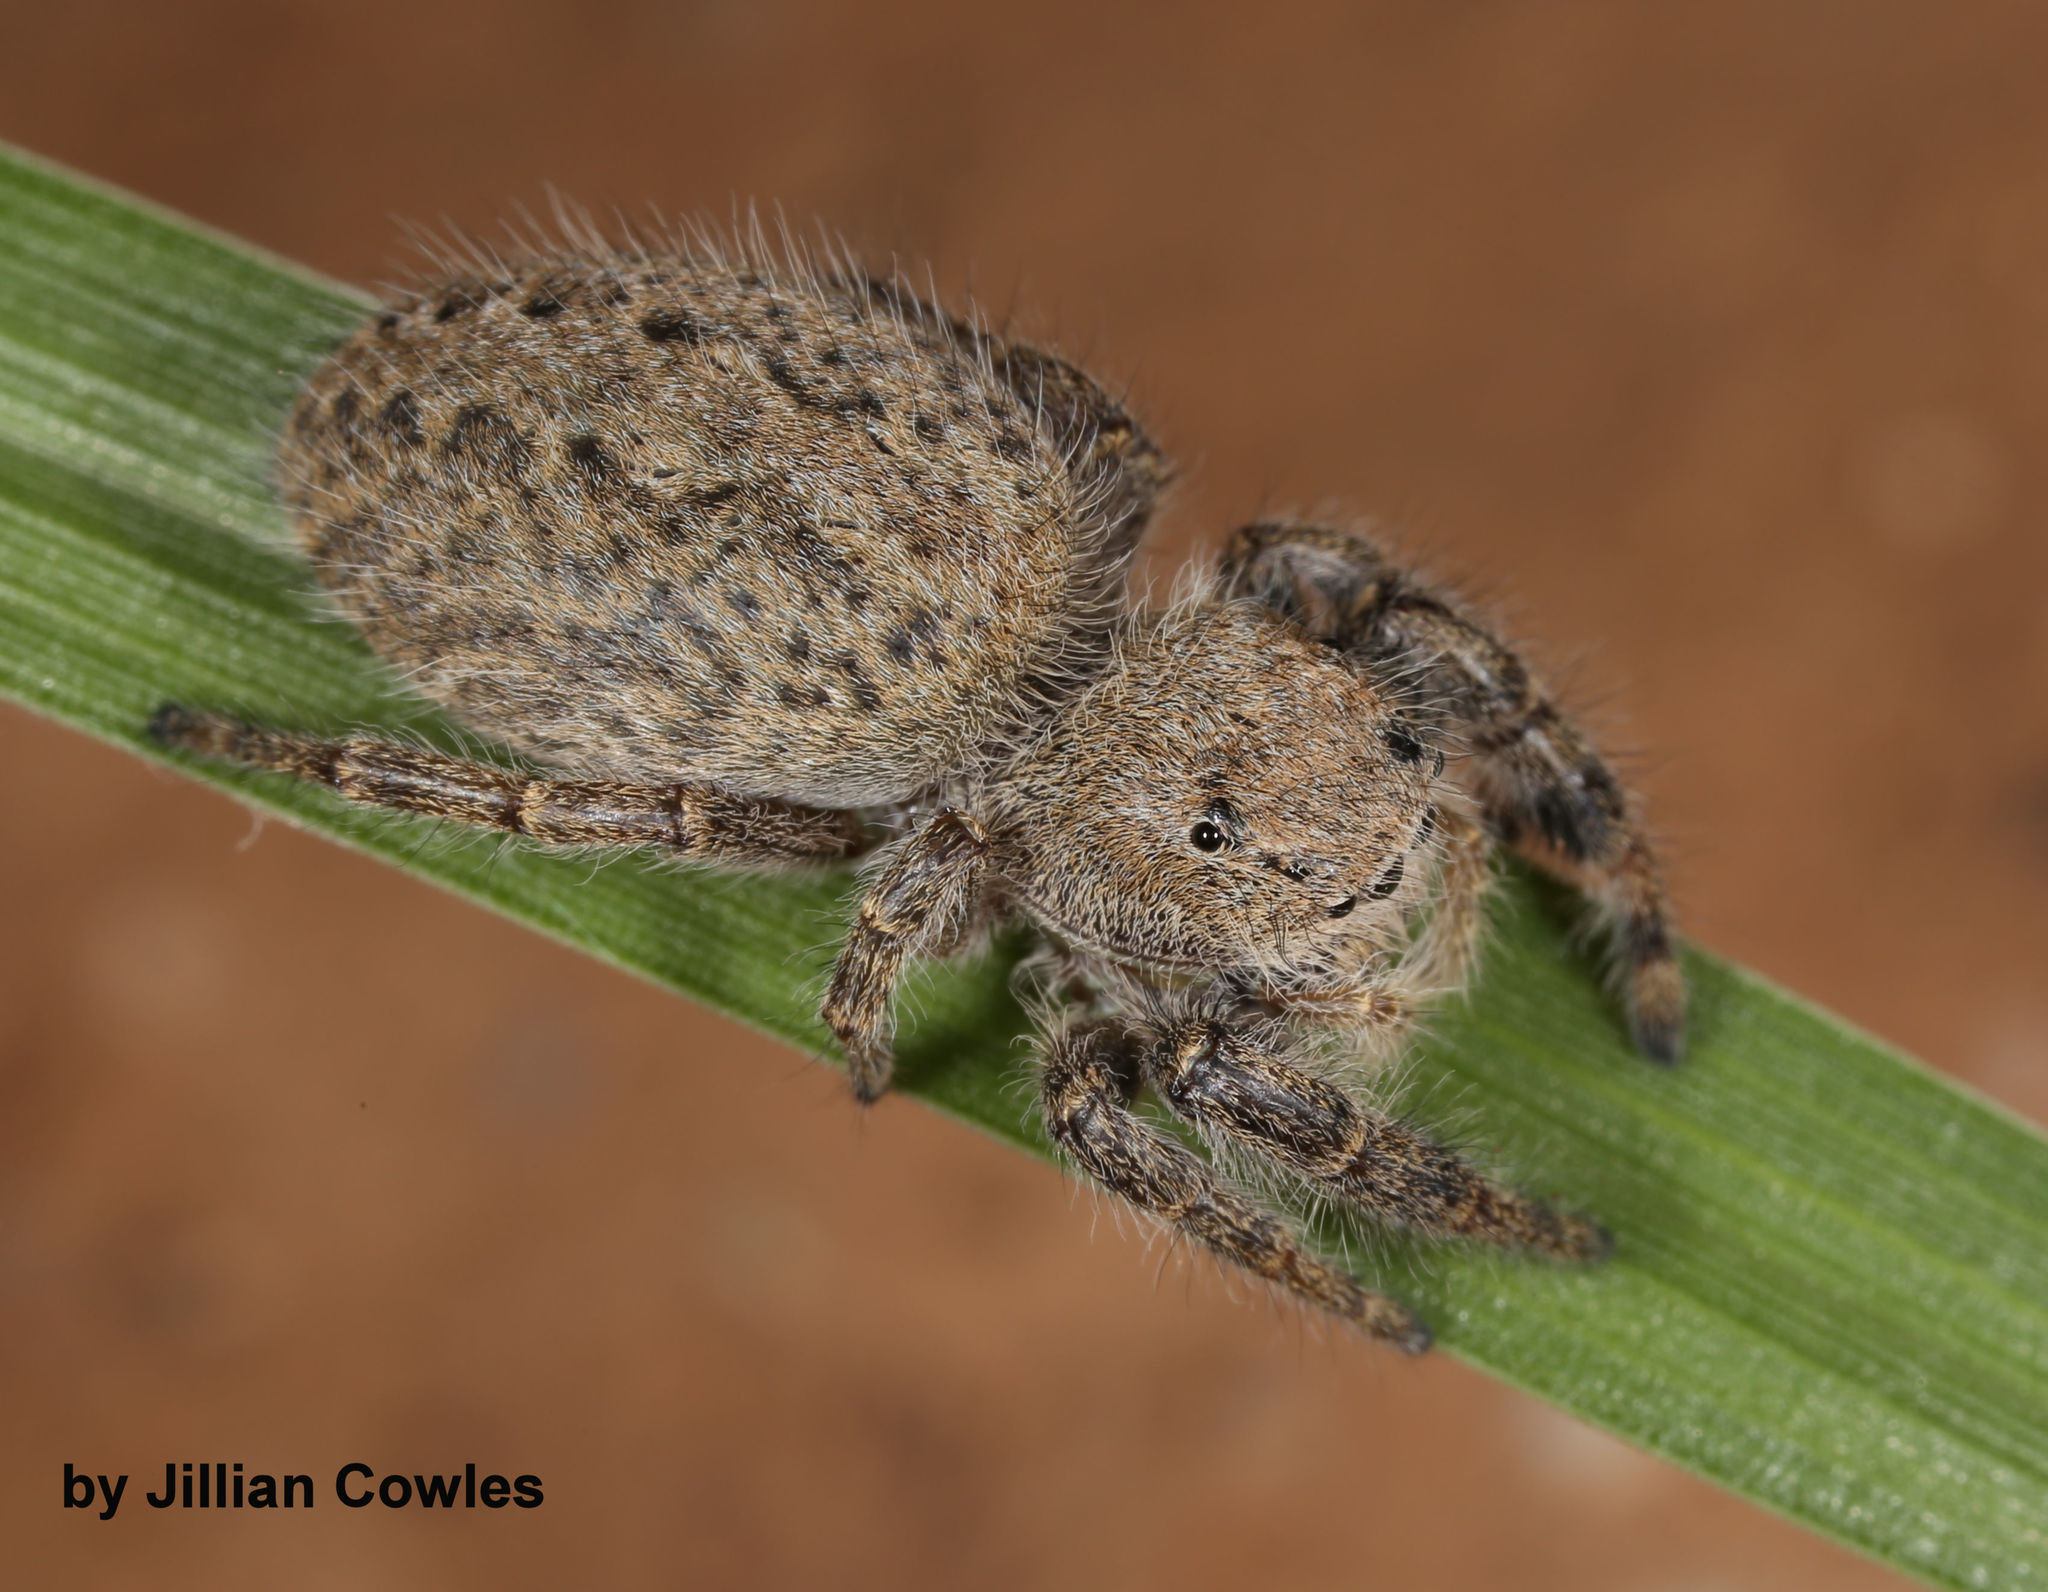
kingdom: Animalia
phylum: Arthropoda
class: Arachnida
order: Araneae
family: Salticidae
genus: Phidippus
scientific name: Phidippus octopunctatus
